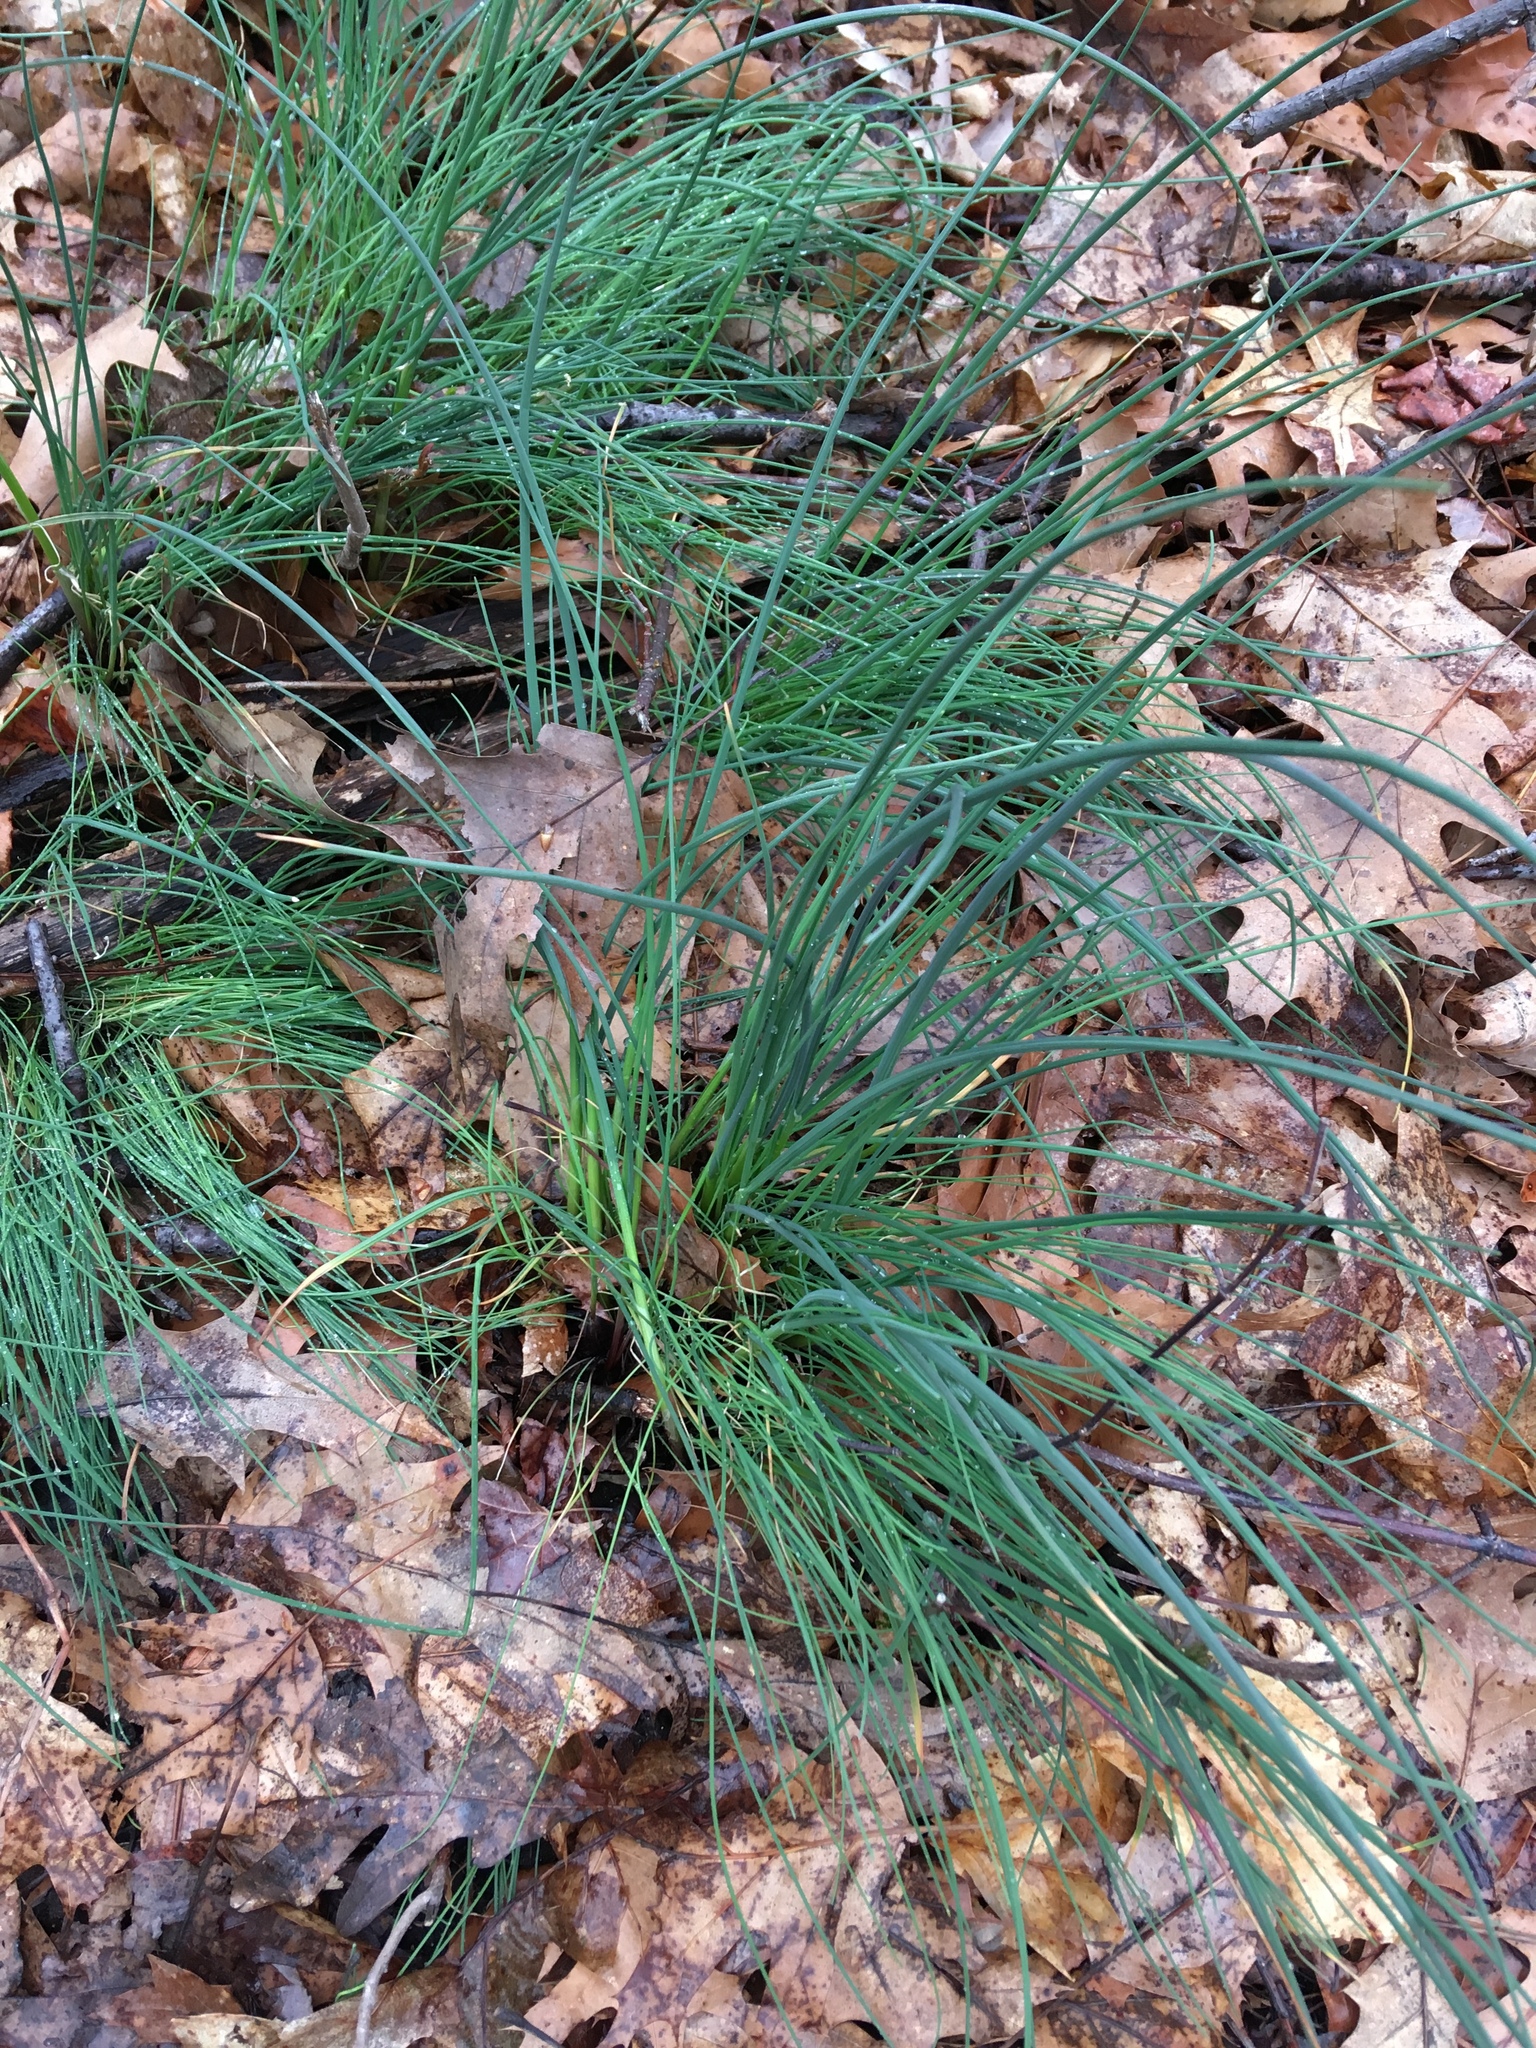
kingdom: Plantae
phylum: Tracheophyta
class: Liliopsida
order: Asparagales
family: Amaryllidaceae
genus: Allium
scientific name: Allium vineale
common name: Crow garlic
